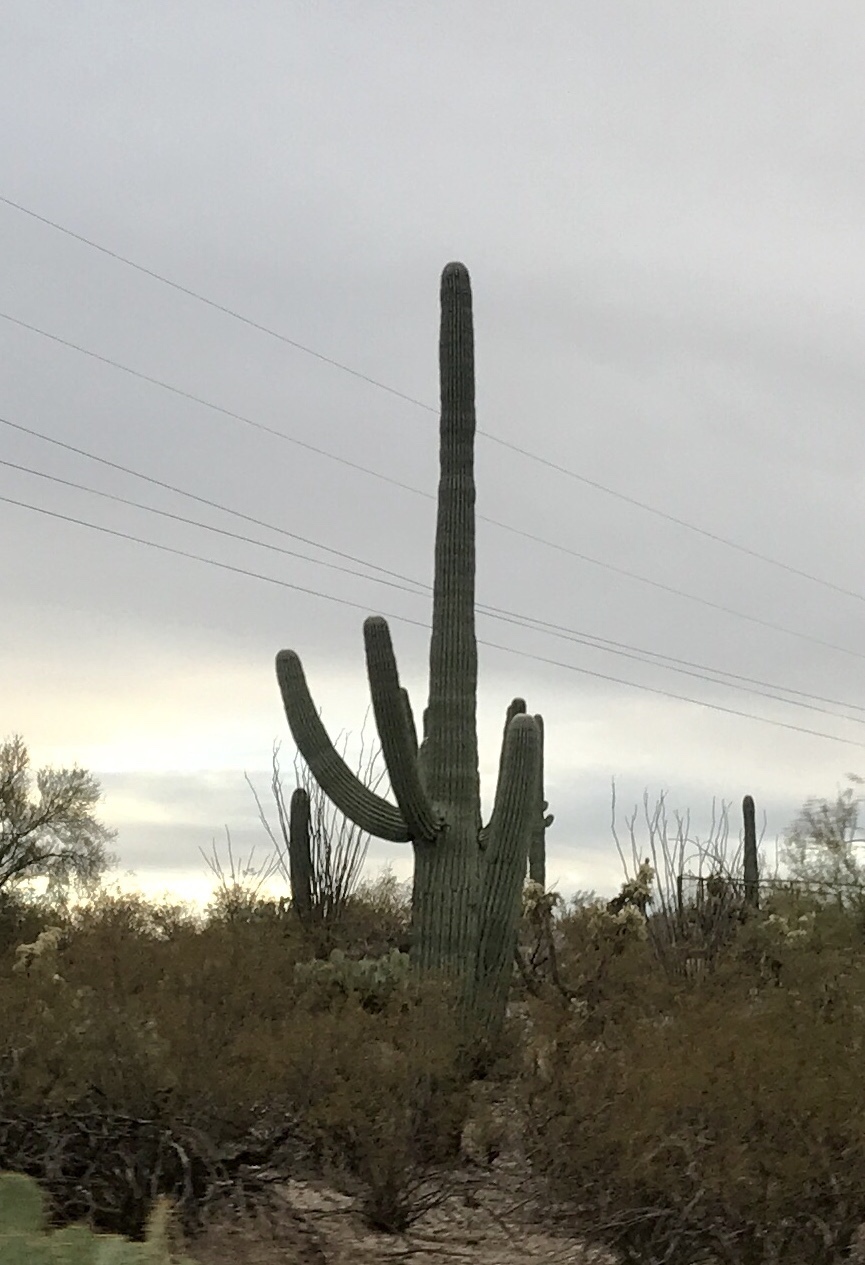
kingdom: Plantae
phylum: Tracheophyta
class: Magnoliopsida
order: Caryophyllales
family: Cactaceae
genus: Carnegiea
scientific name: Carnegiea gigantea
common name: Saguaro
